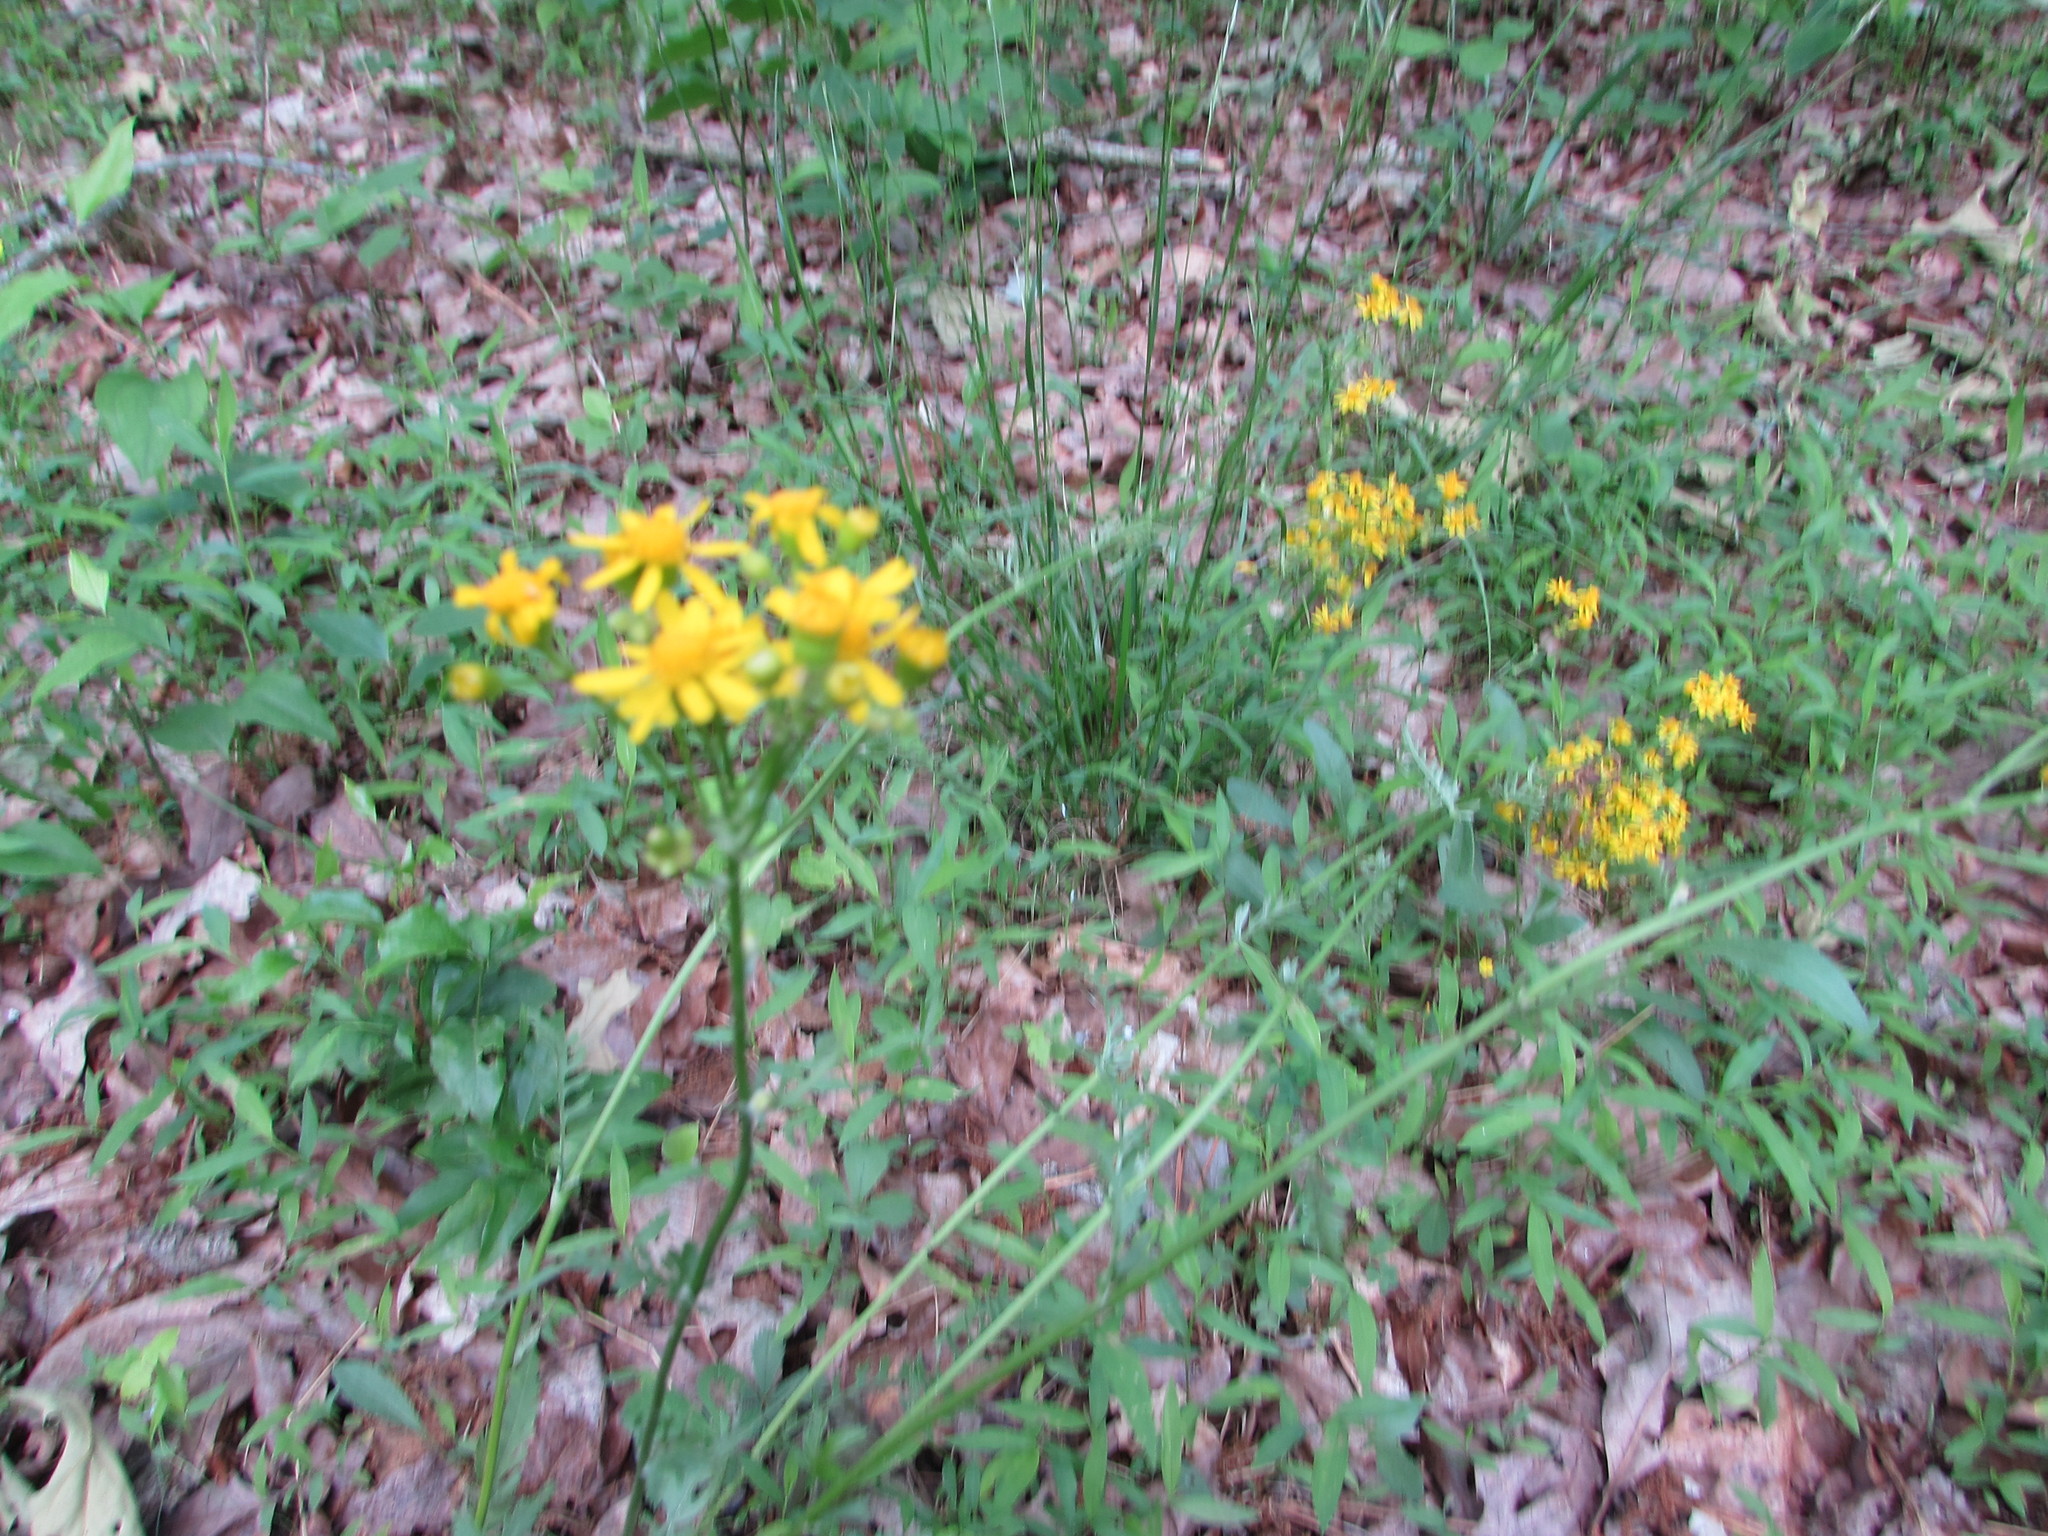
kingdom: Plantae
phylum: Tracheophyta
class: Magnoliopsida
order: Asterales
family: Asteraceae
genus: Packera
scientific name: Packera anonyma
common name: Small ragwort
